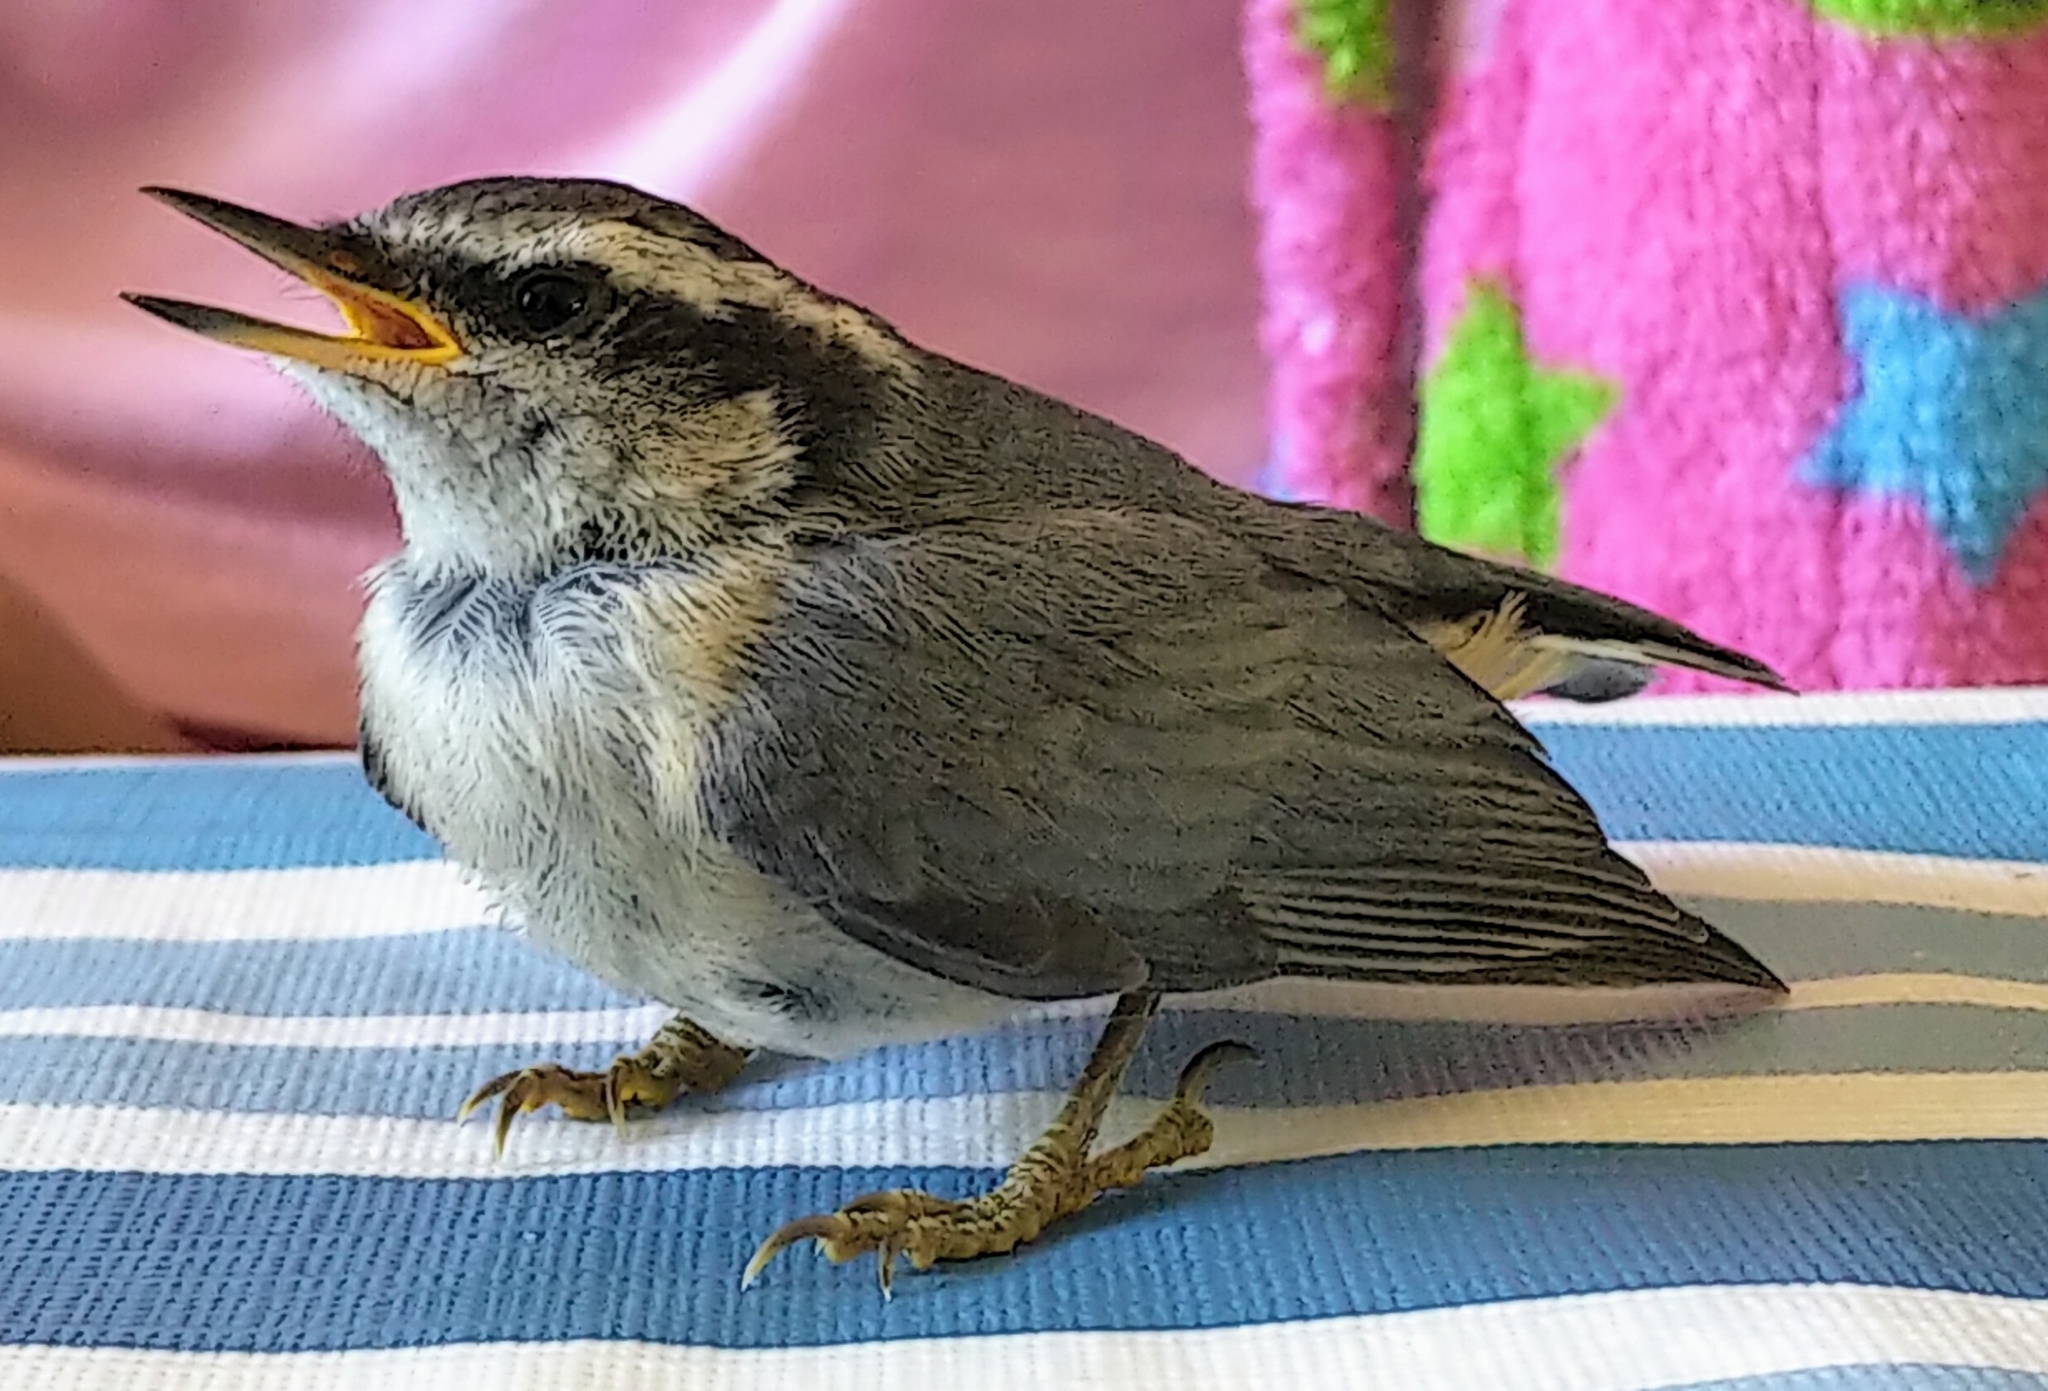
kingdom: Animalia
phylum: Chordata
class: Aves
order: Passeriformes
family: Sittidae
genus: Sitta
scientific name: Sitta canadensis
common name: Red-breasted nuthatch
